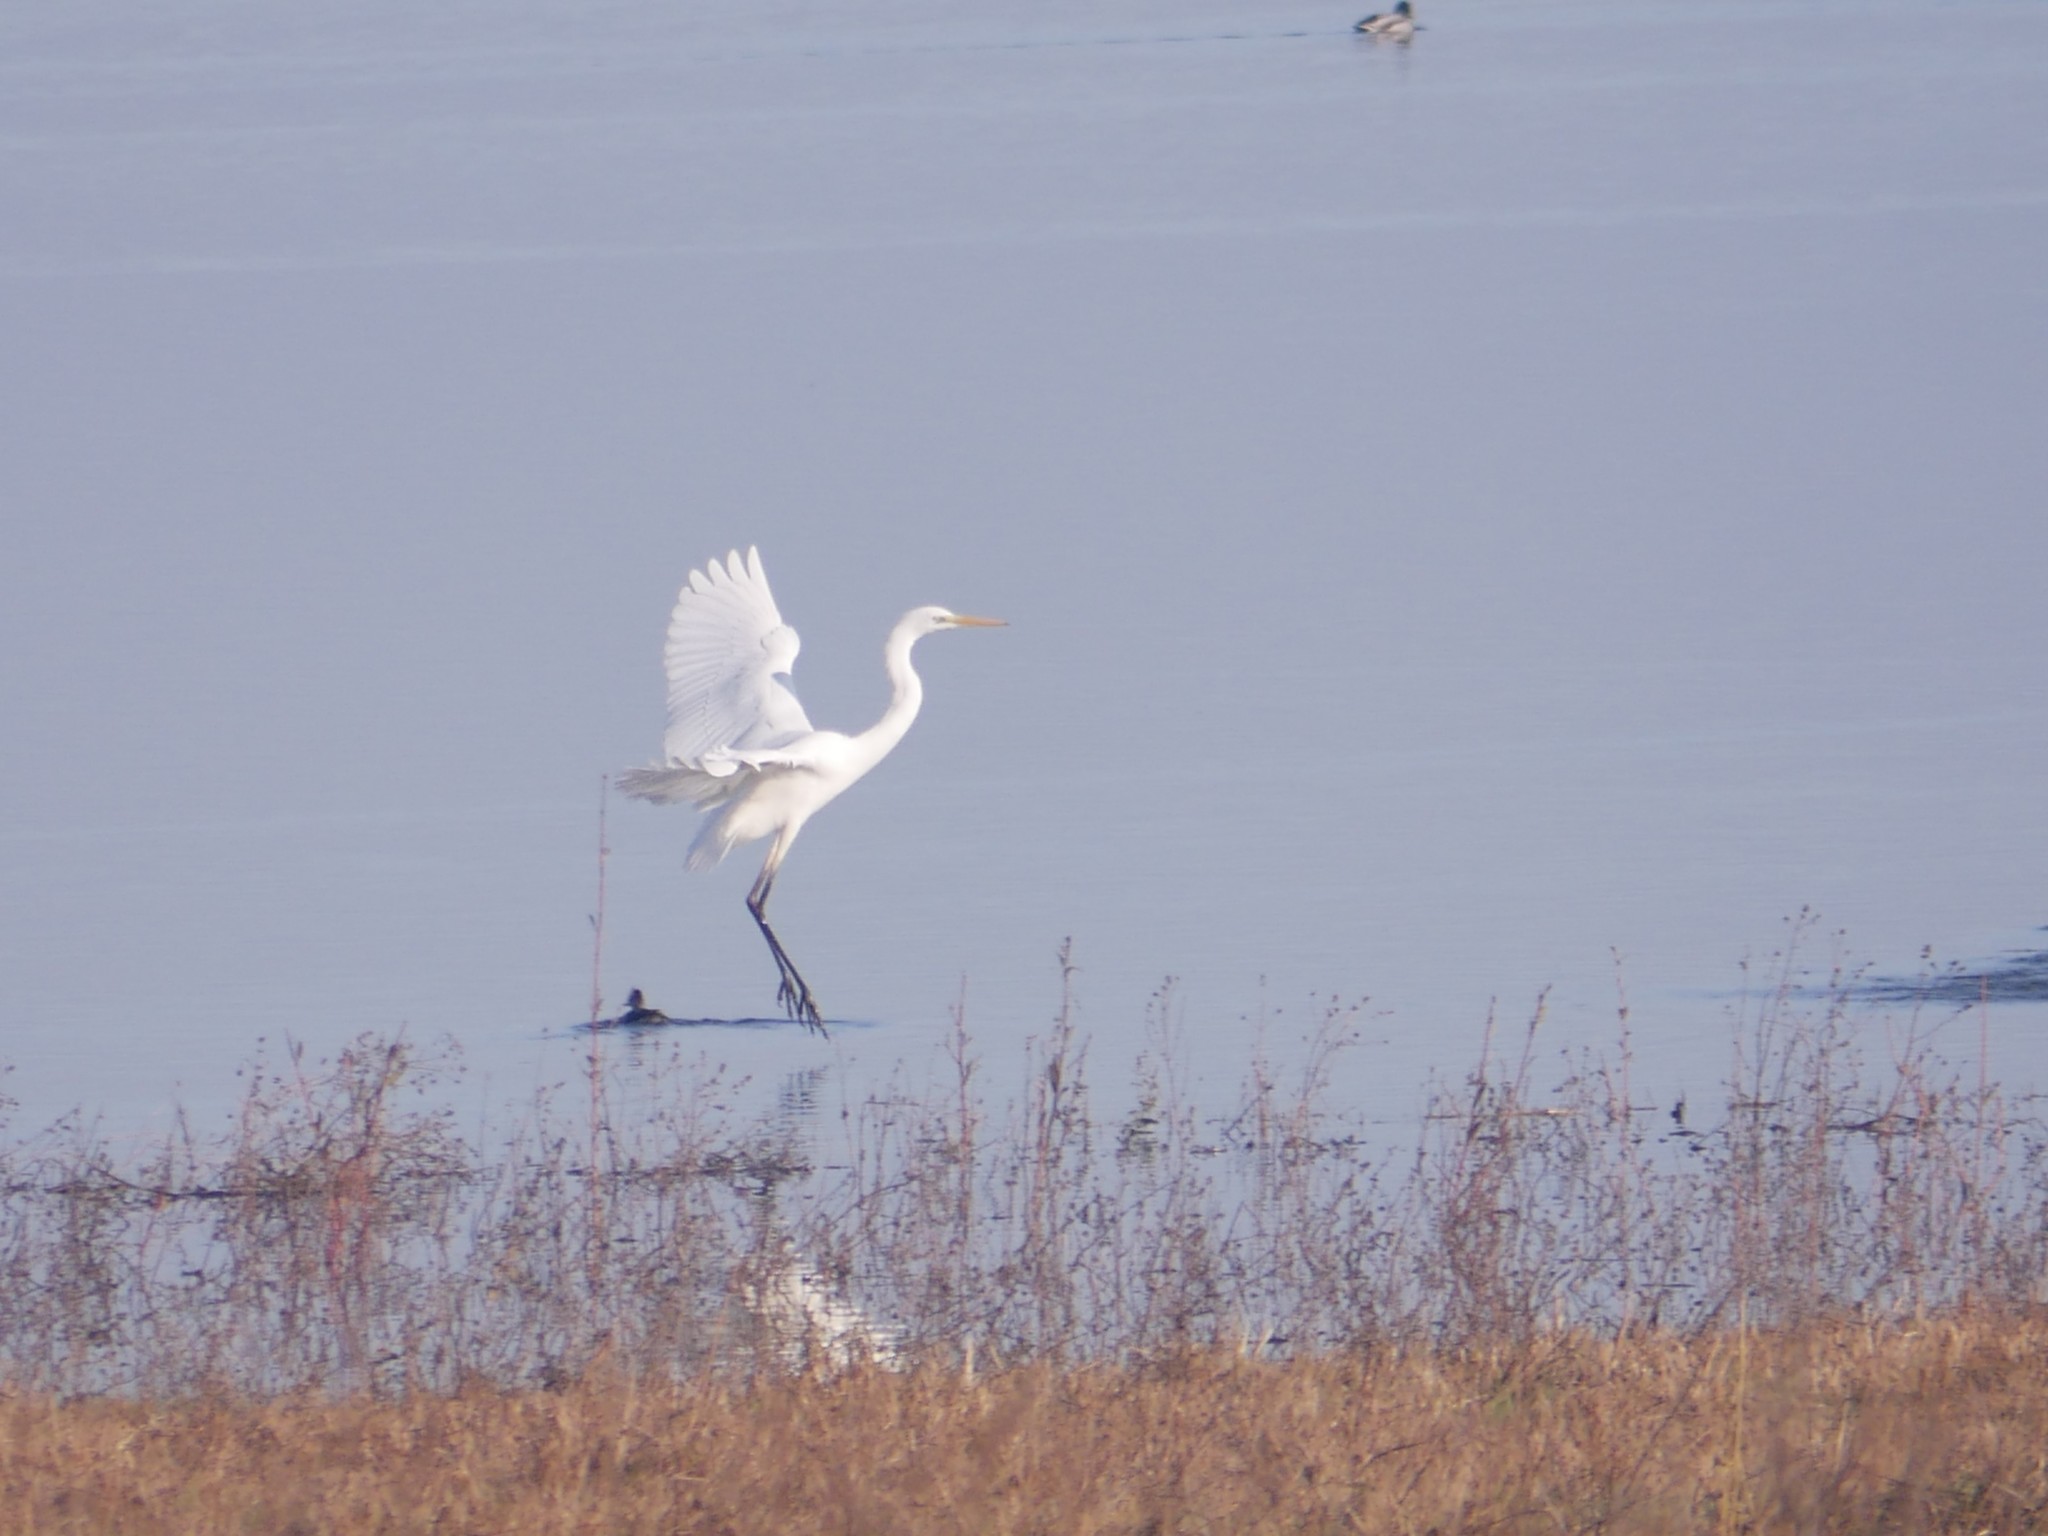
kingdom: Animalia
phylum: Chordata
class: Aves
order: Pelecaniformes
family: Ardeidae
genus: Ardea
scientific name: Ardea alba
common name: Great egret
